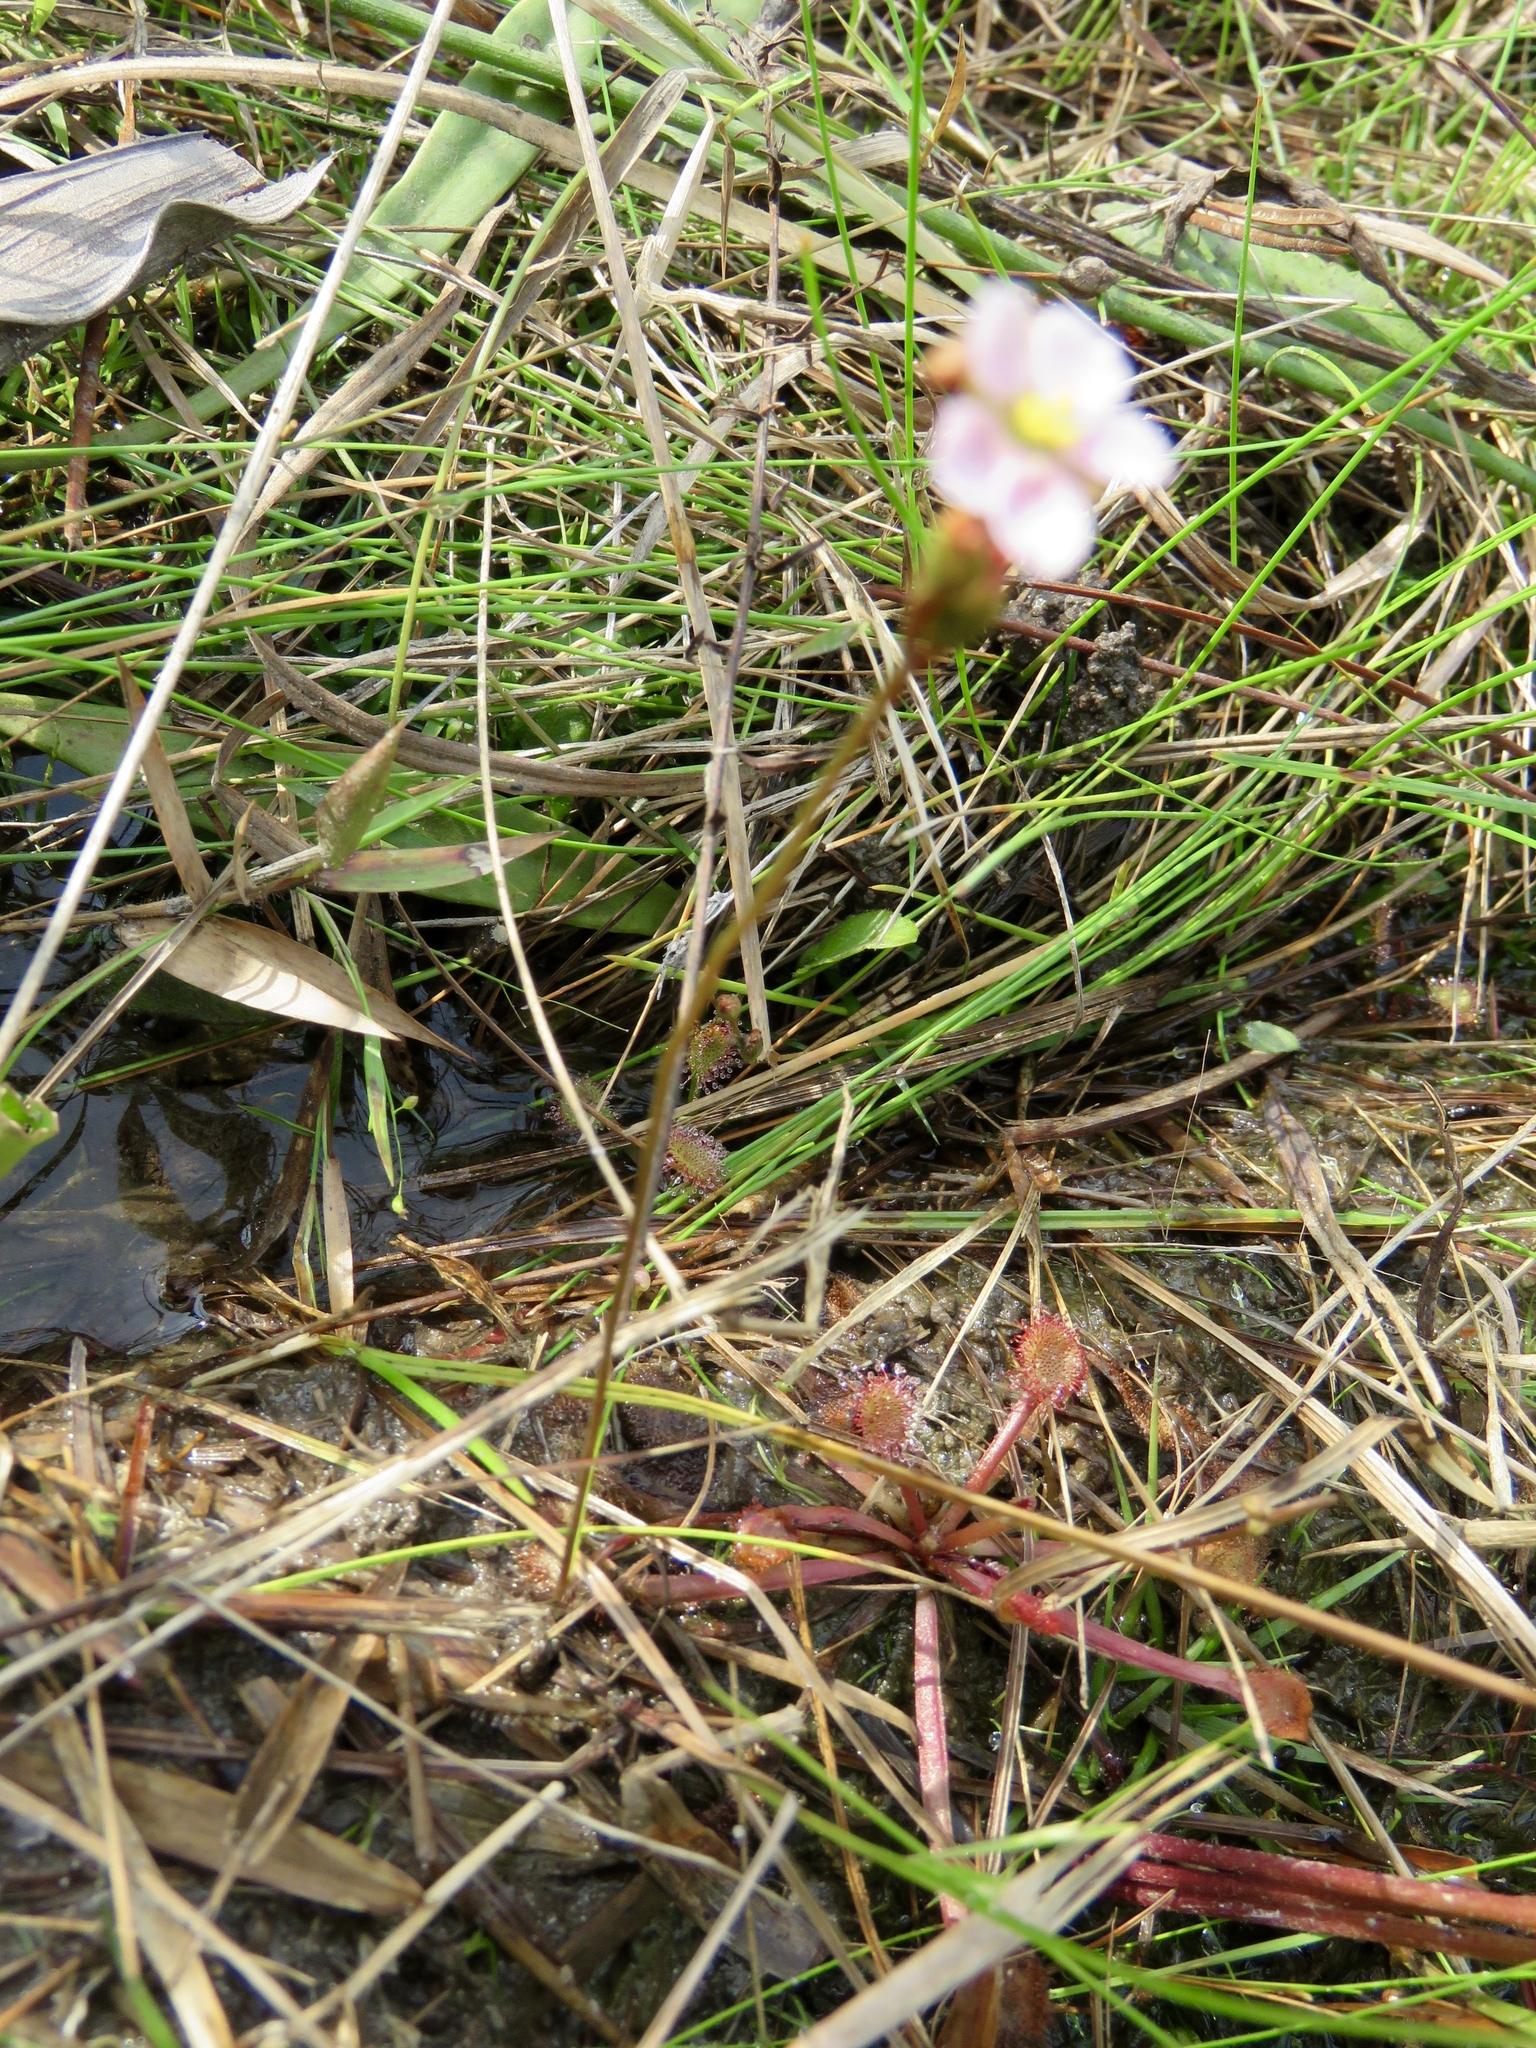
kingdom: Plantae
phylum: Tracheophyta
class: Magnoliopsida
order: Caryophyllales
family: Droseraceae
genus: Drosera
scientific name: Drosera capillaris
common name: Pink sundew
